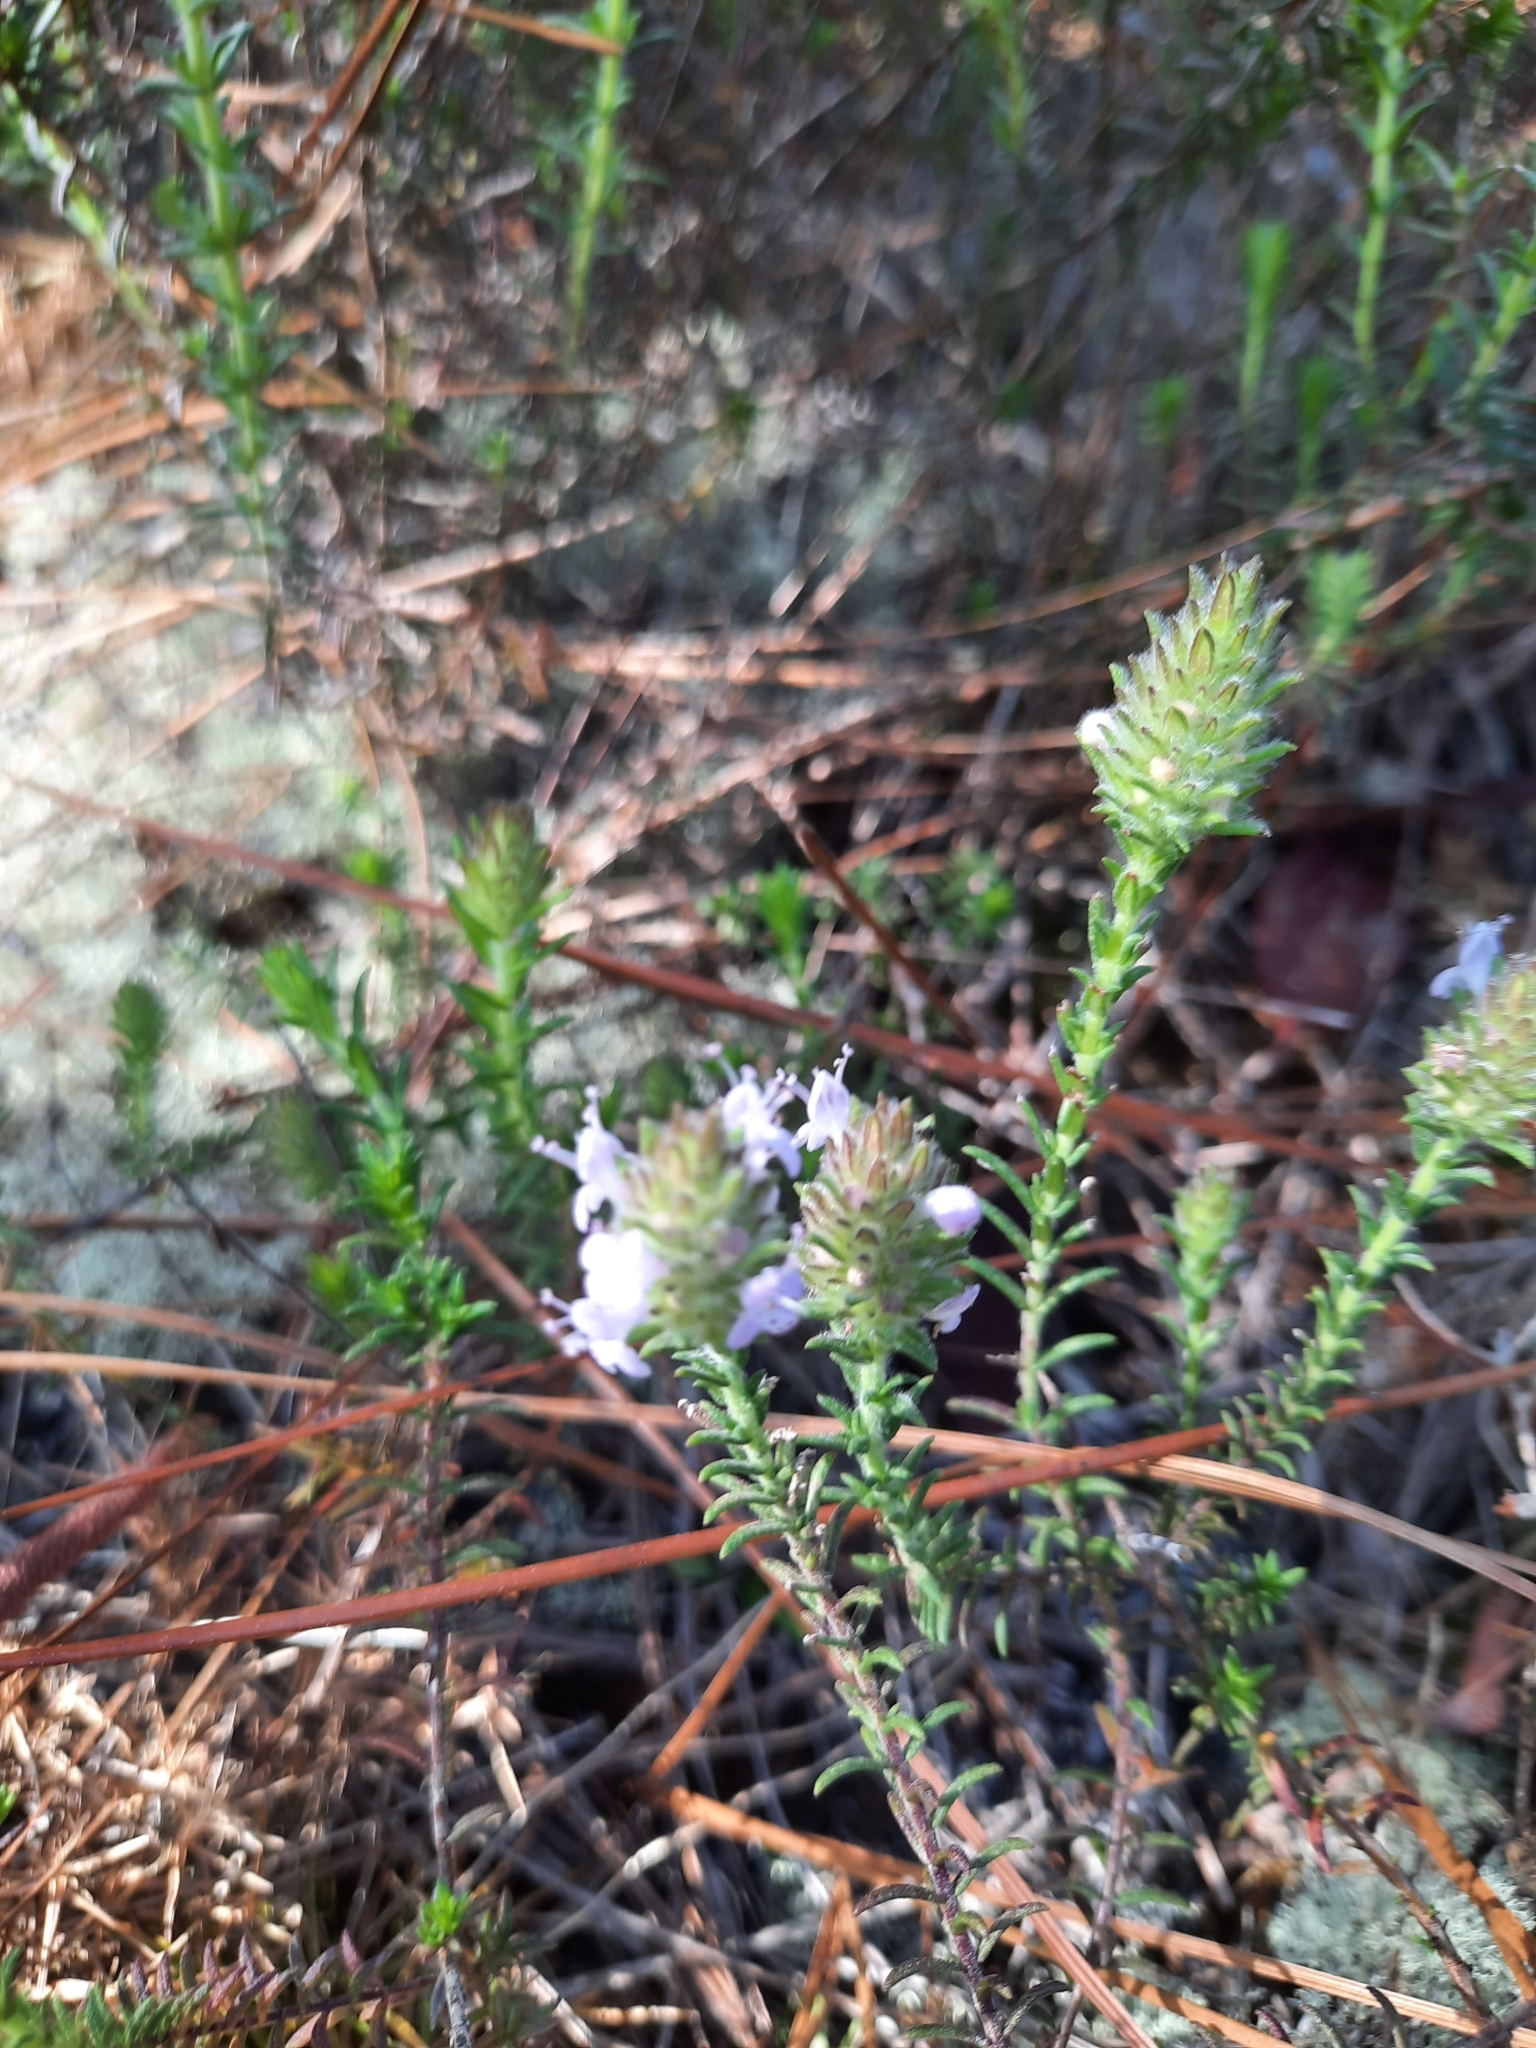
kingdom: Plantae
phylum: Tracheophyta
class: Magnoliopsida
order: Lamiales
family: Lamiaceae
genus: Piloblephis
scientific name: Piloblephis rigida
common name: Wild pennyroyal
